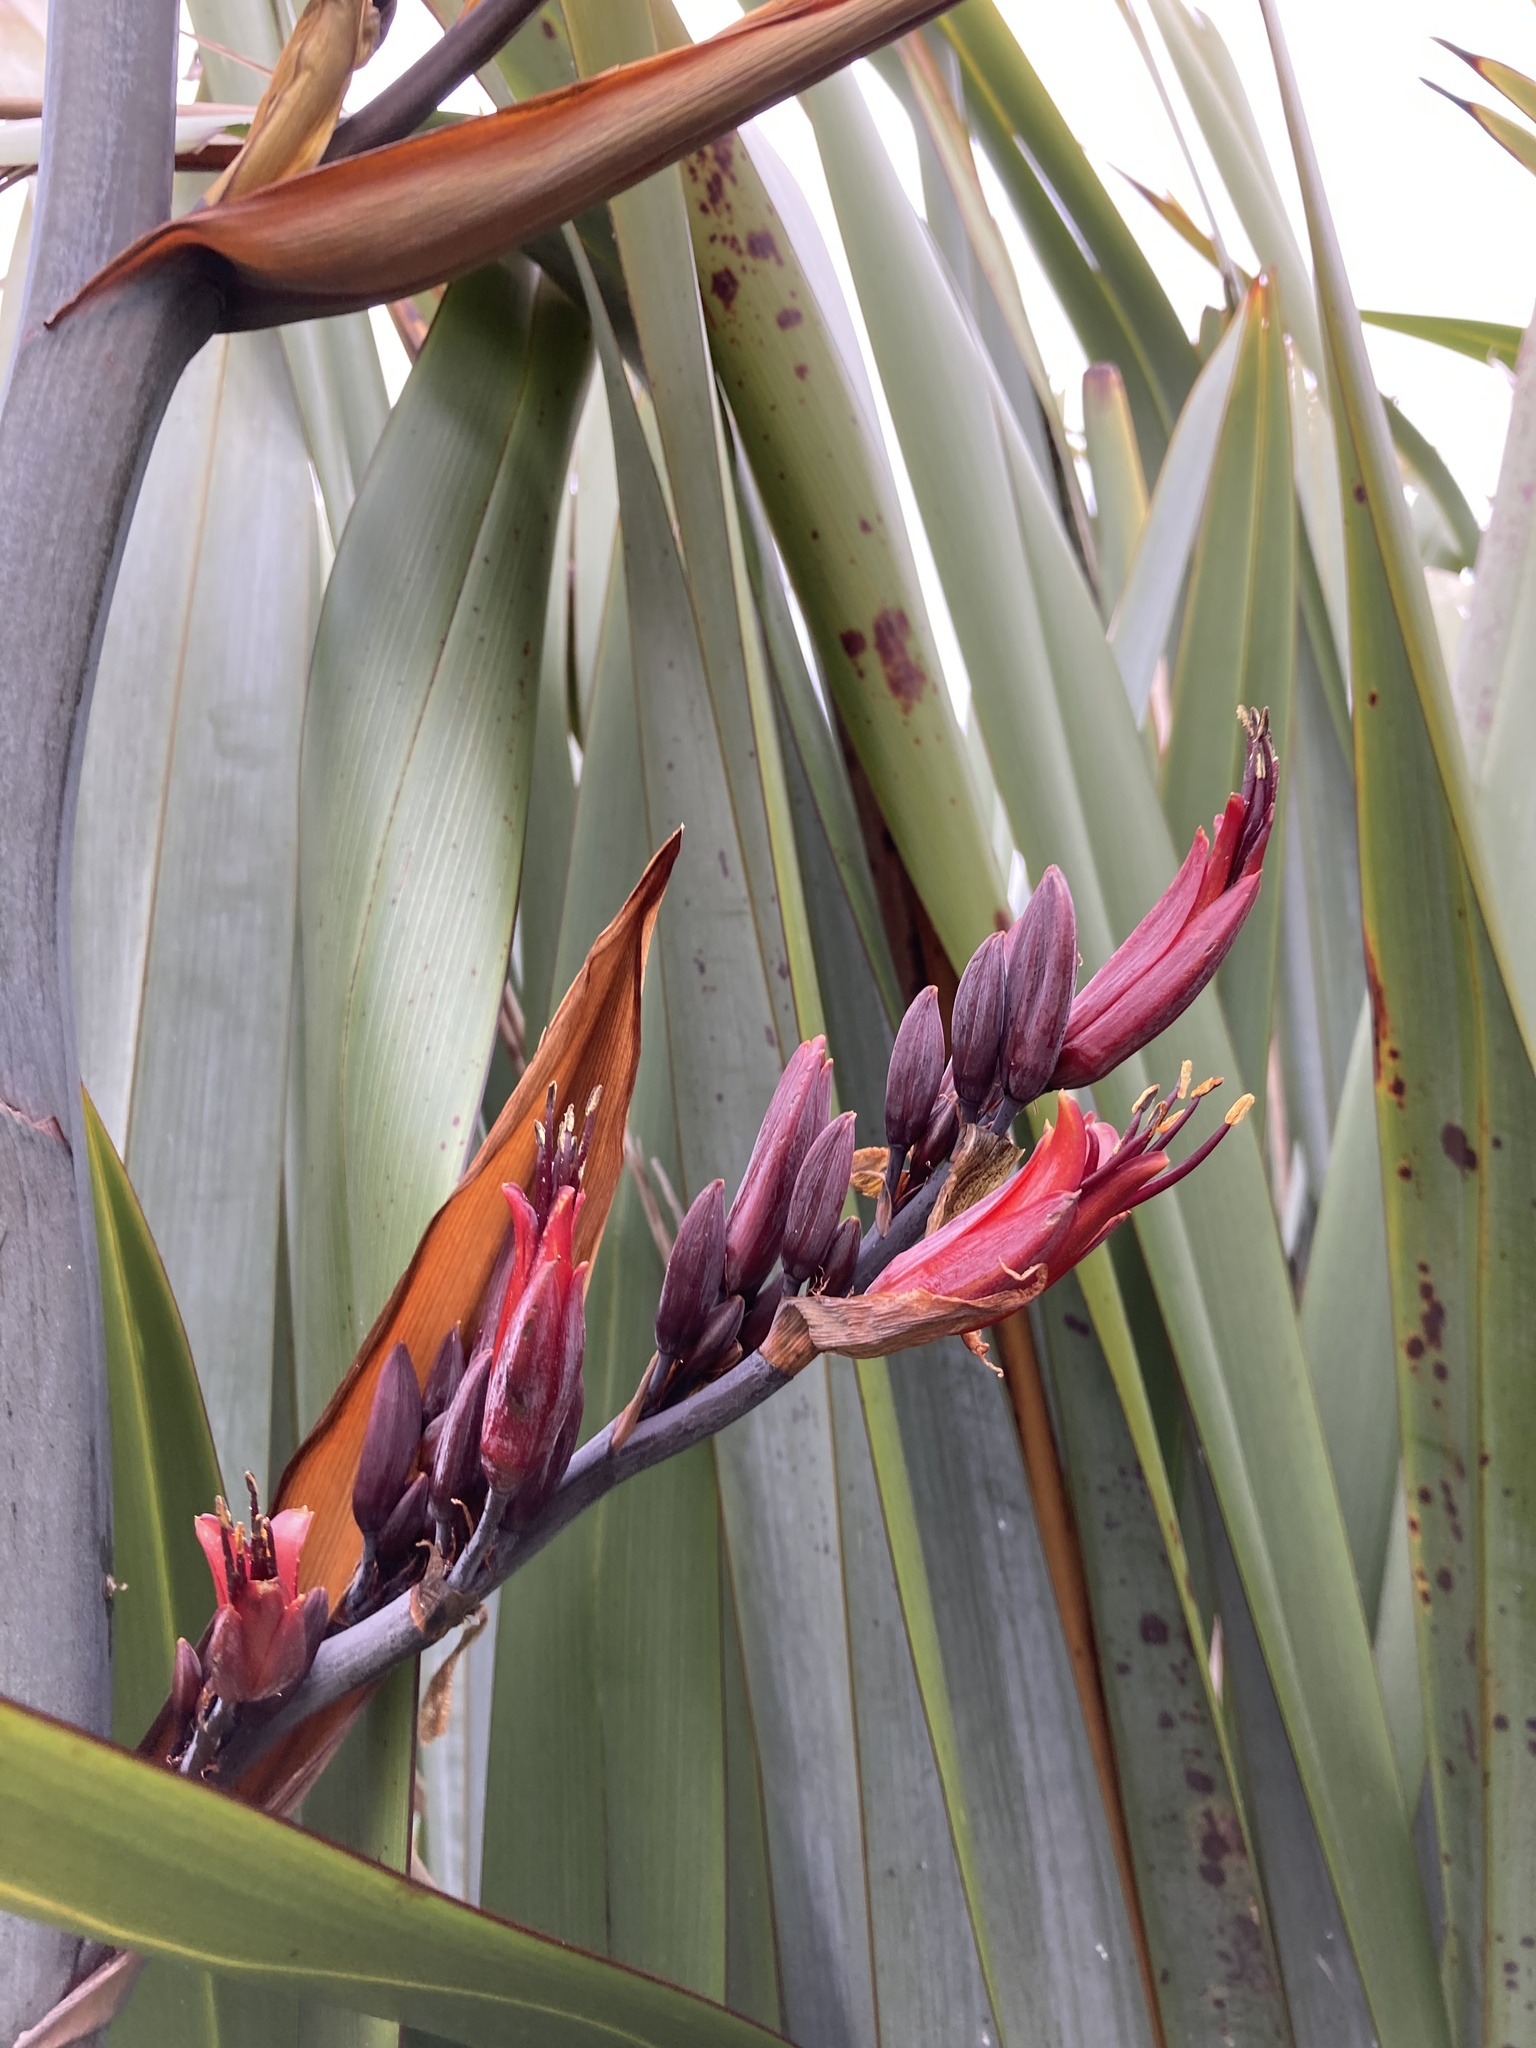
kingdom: Plantae
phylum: Tracheophyta
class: Liliopsida
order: Asparagales
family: Asphodelaceae
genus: Phormium
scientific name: Phormium tenax
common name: New zealand flax
